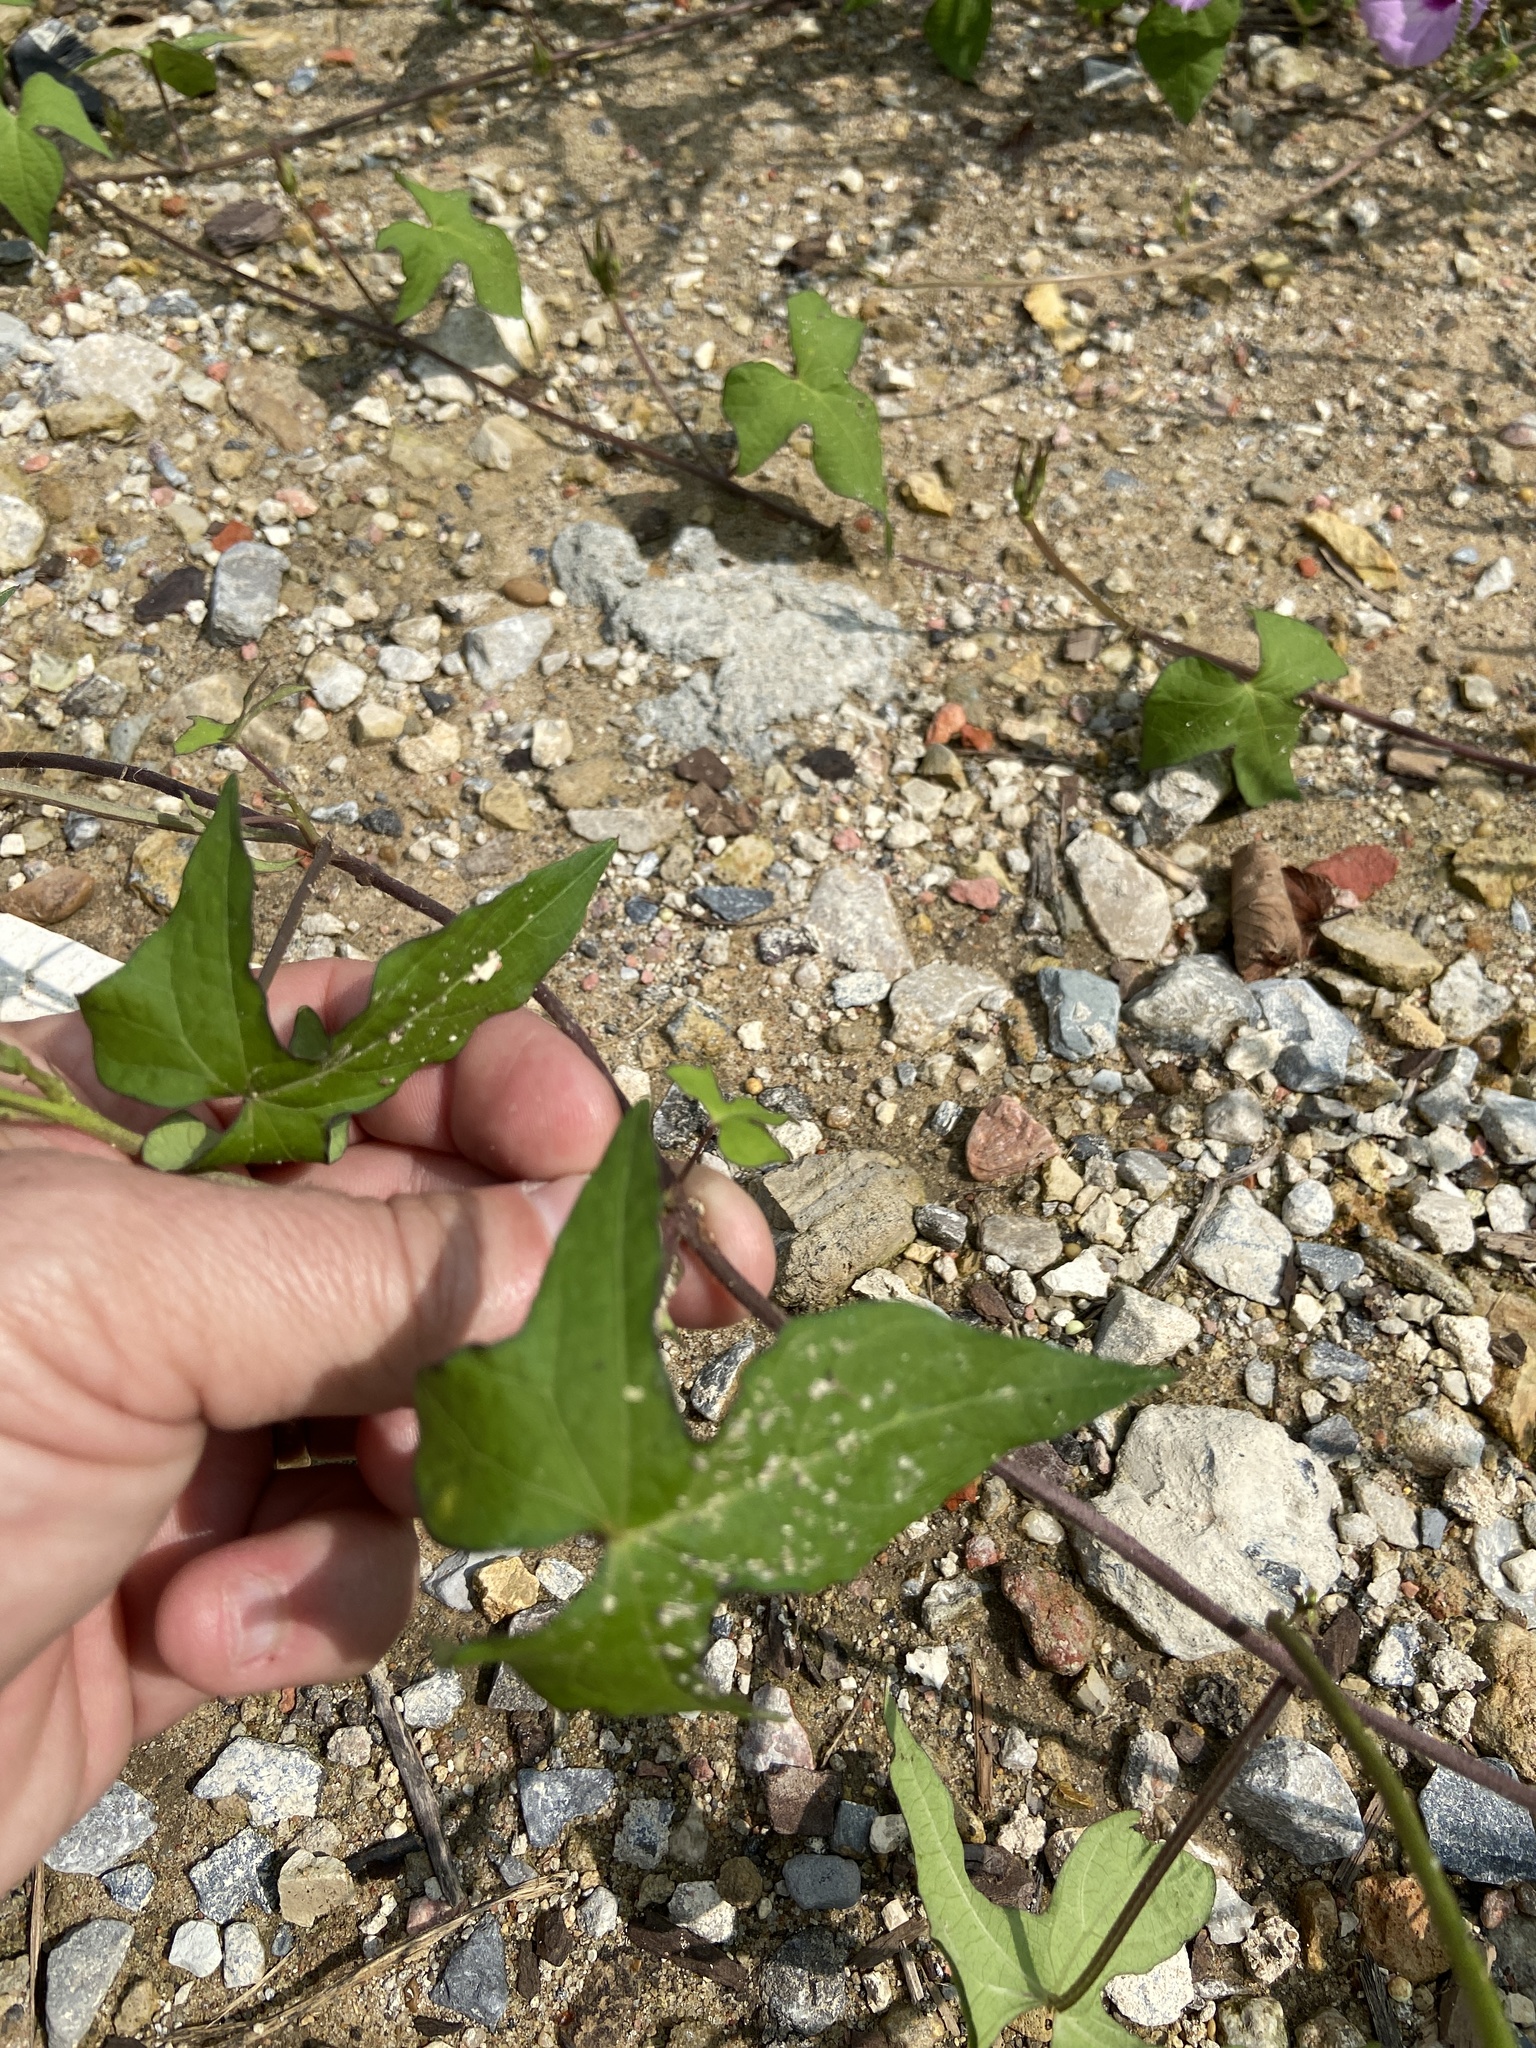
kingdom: Plantae
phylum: Tracheophyta
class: Magnoliopsida
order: Solanales
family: Convolvulaceae
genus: Ipomoea
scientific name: Ipomoea cordatotriloba
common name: Cotton morning glory
